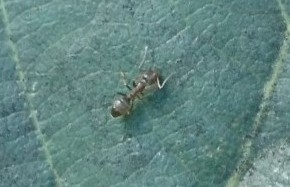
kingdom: Animalia
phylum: Arthropoda
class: Insecta
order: Hymenoptera
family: Formicidae
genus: Linepithema
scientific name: Linepithema humile
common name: Argentine ant
